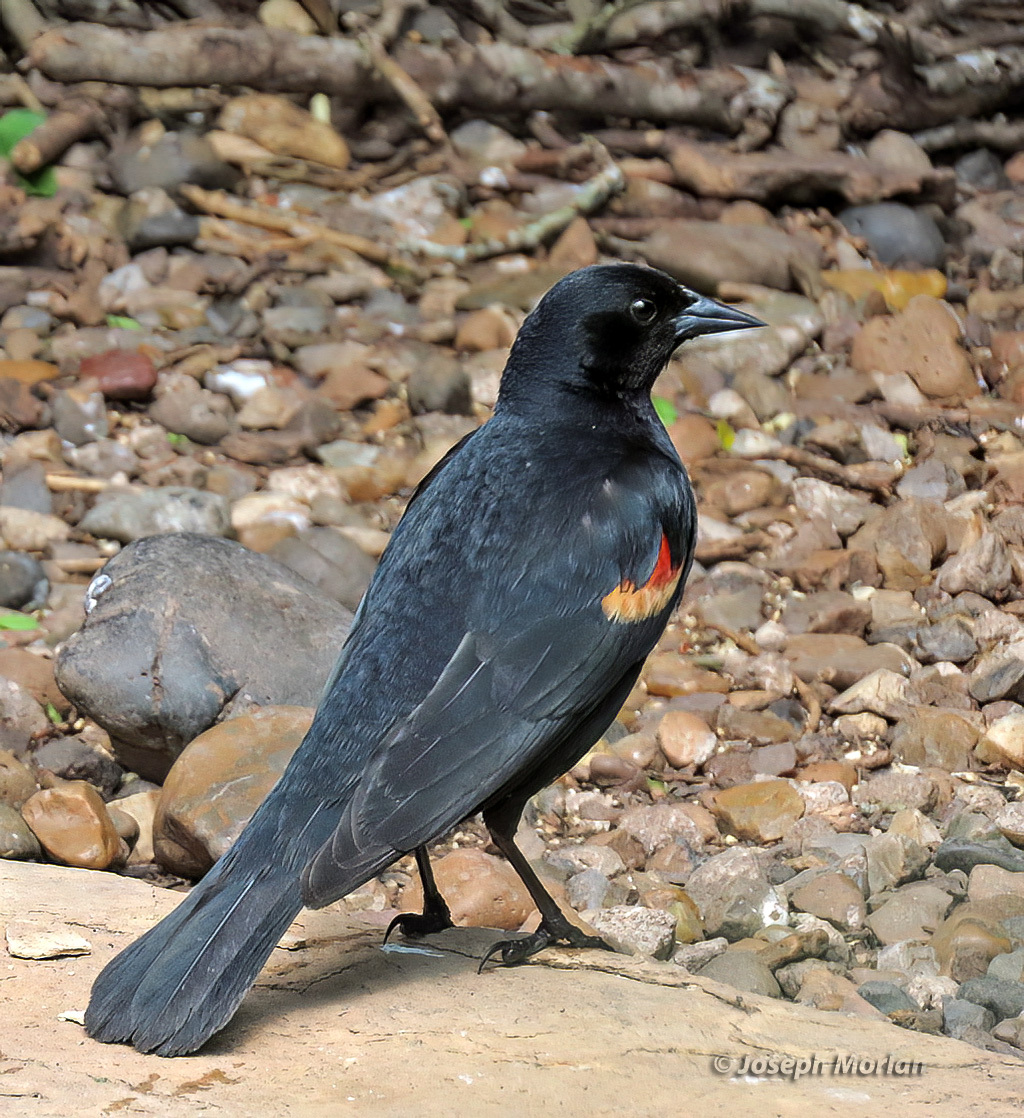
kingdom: Animalia
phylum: Chordata
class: Aves
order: Passeriformes
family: Icteridae
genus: Agelaius
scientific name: Agelaius phoeniceus
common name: Red-winged blackbird
